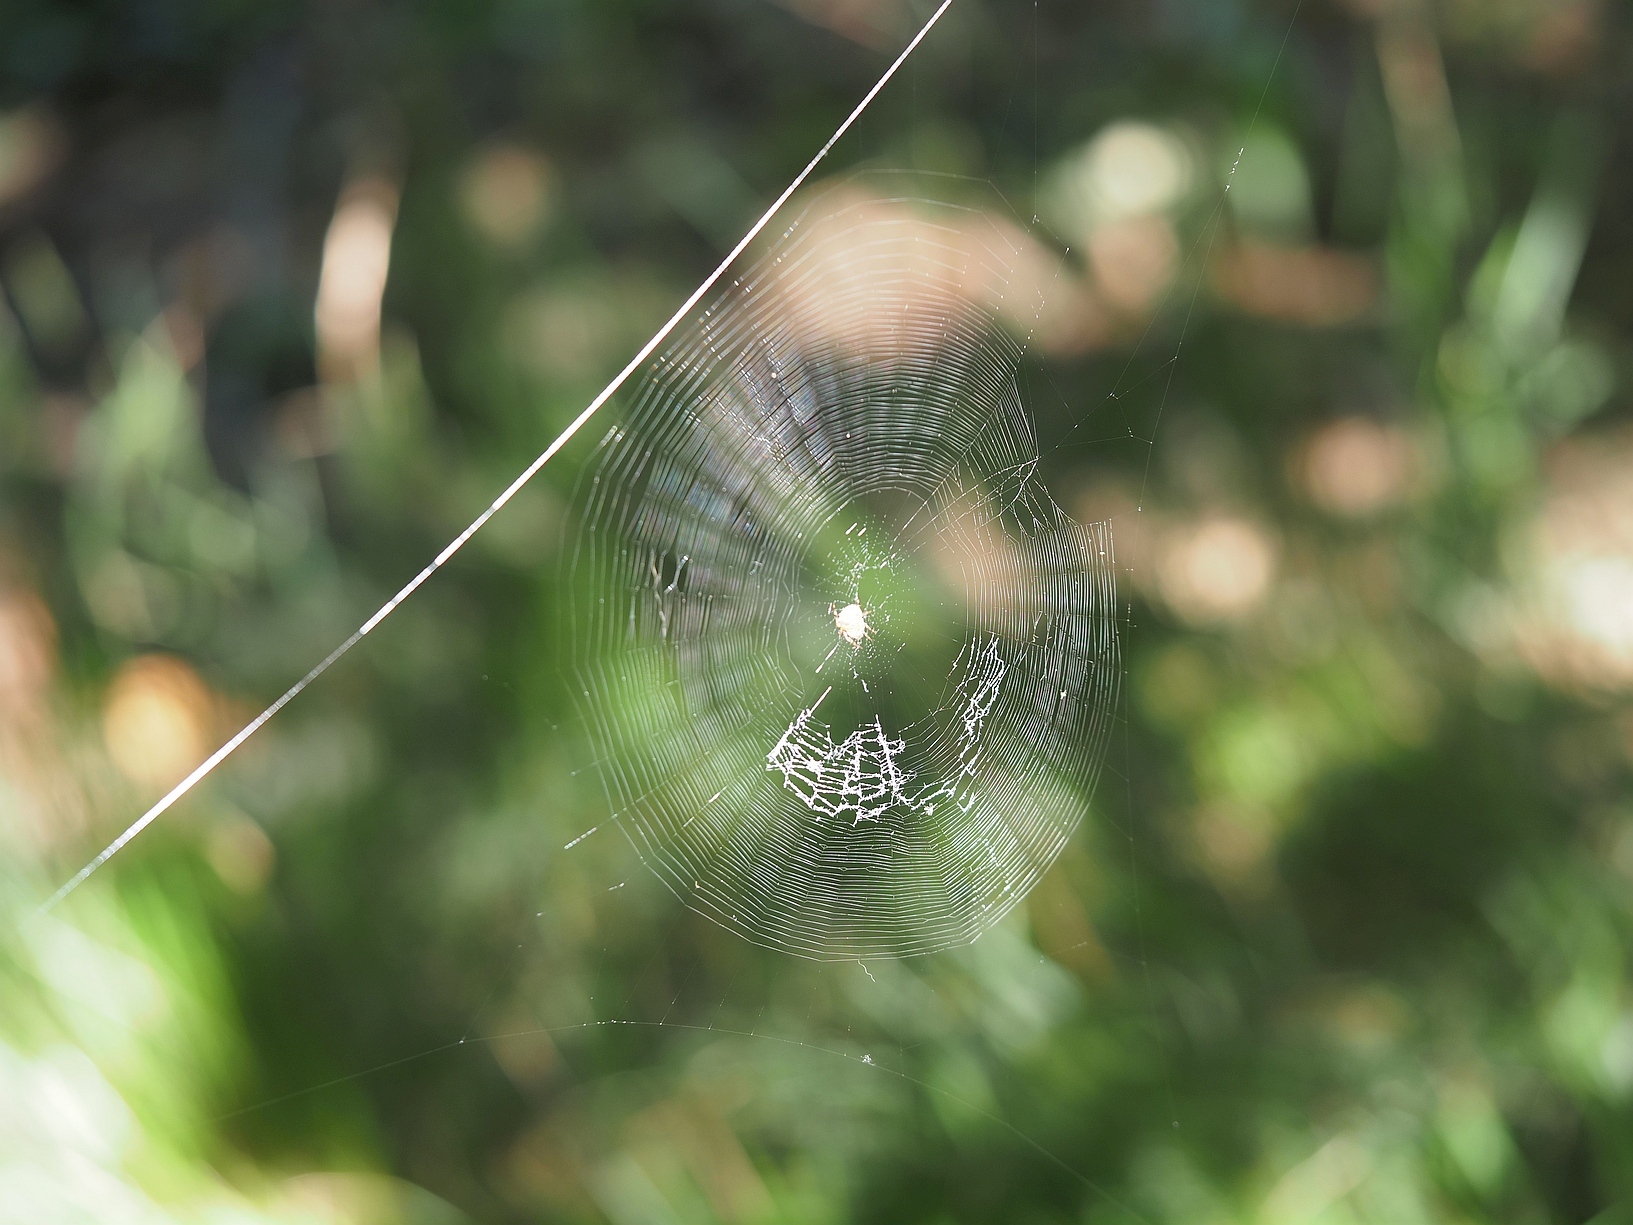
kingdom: Animalia
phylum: Arthropoda
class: Arachnida
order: Araneae
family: Araneidae
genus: Araneus
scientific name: Araneus diadematus
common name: Cross orbweaver
